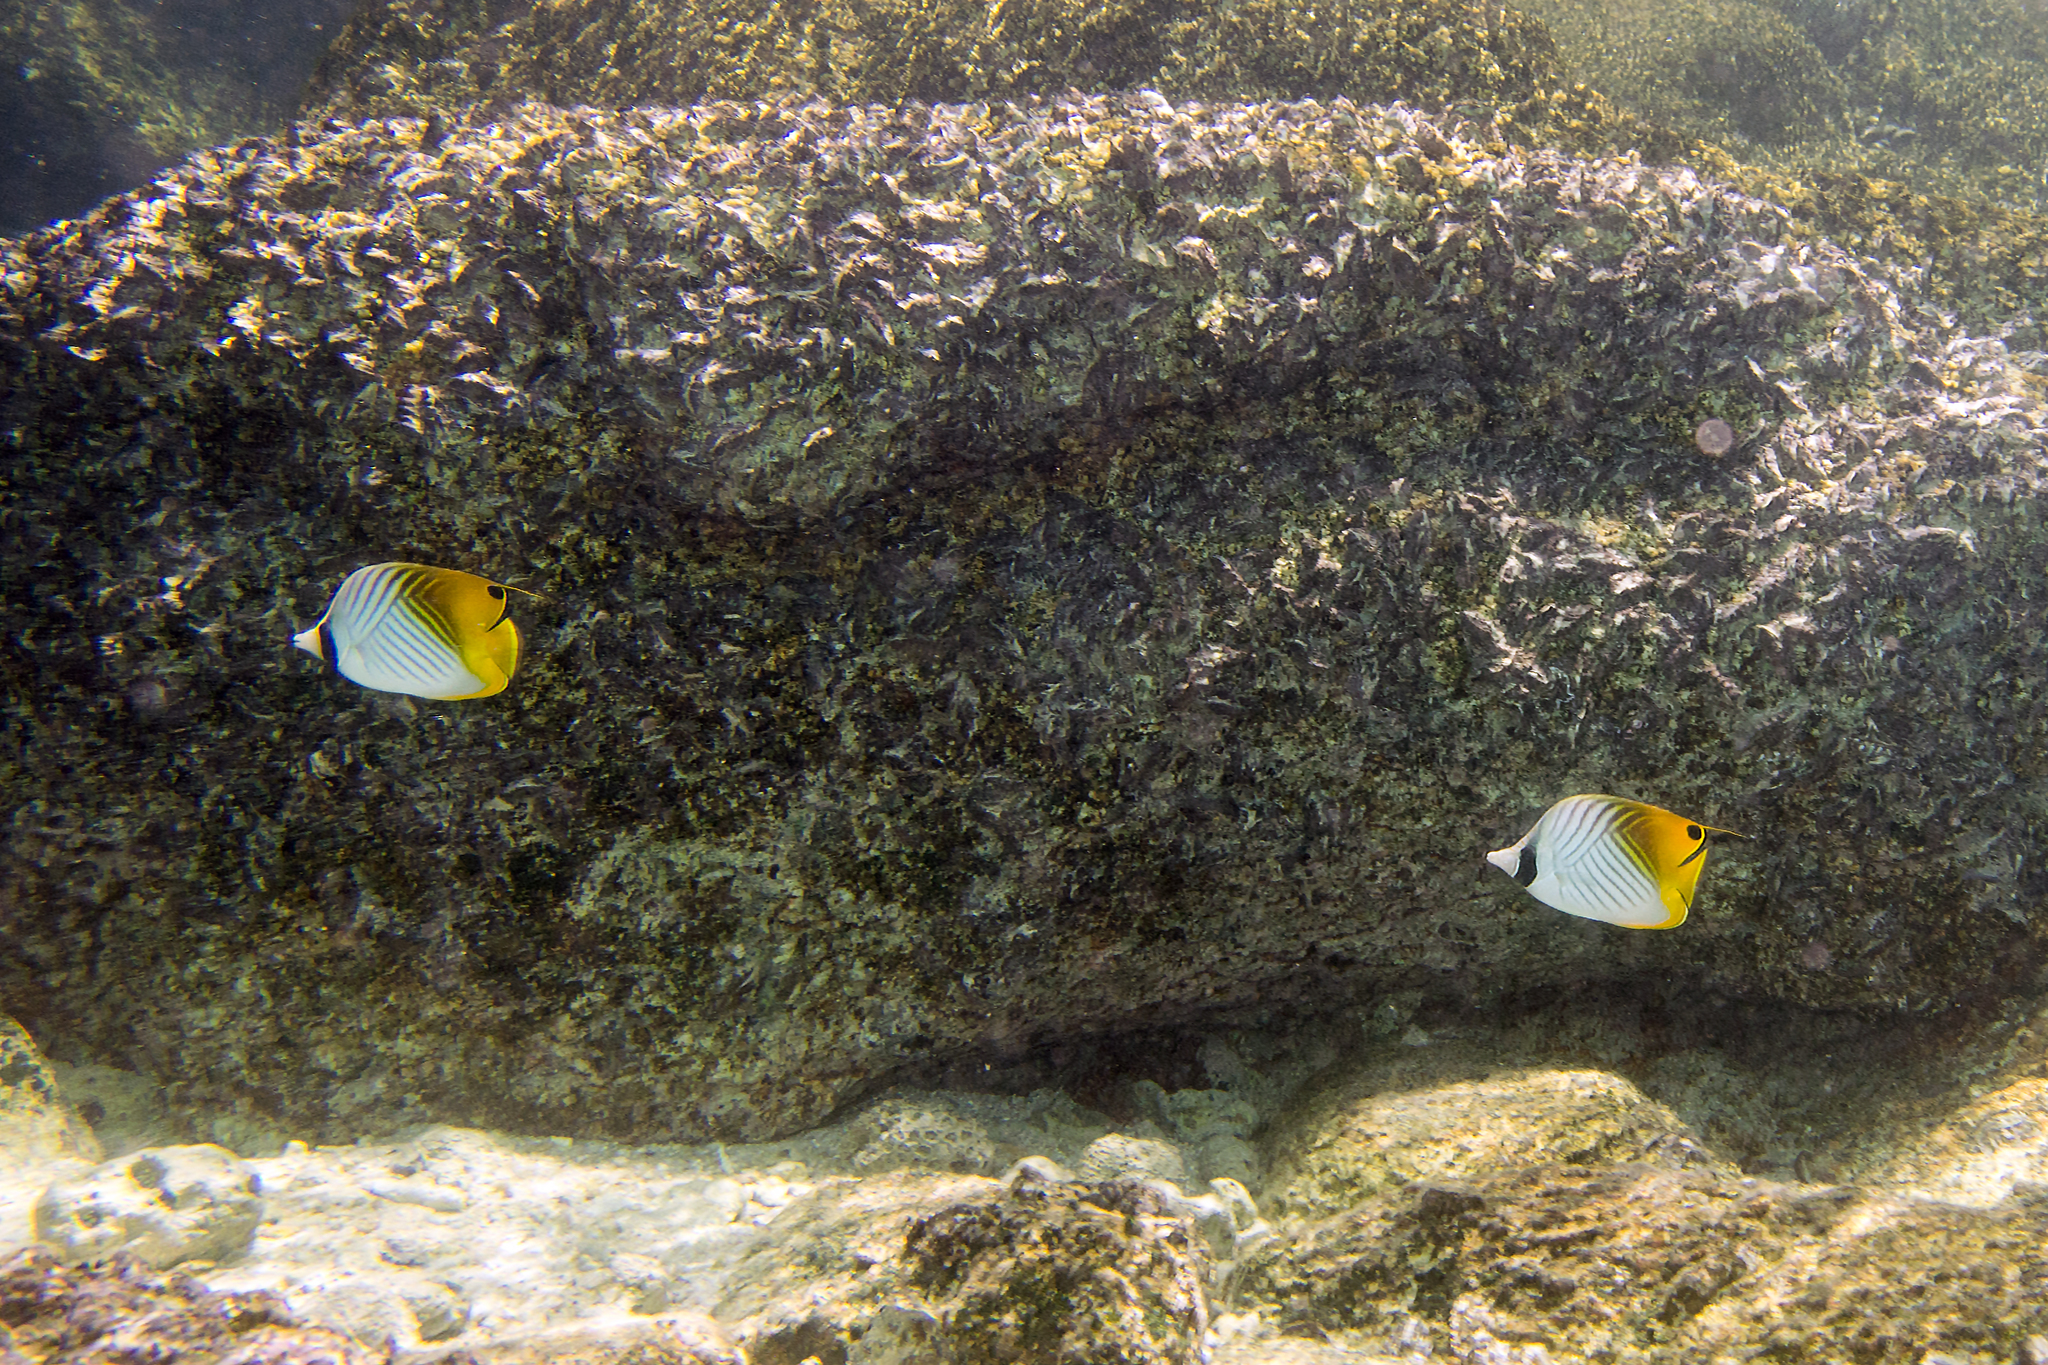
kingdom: Animalia
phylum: Chordata
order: Perciformes
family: Chaetodontidae
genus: Chaetodon
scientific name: Chaetodon auriga
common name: Threadfin butterflyfish
